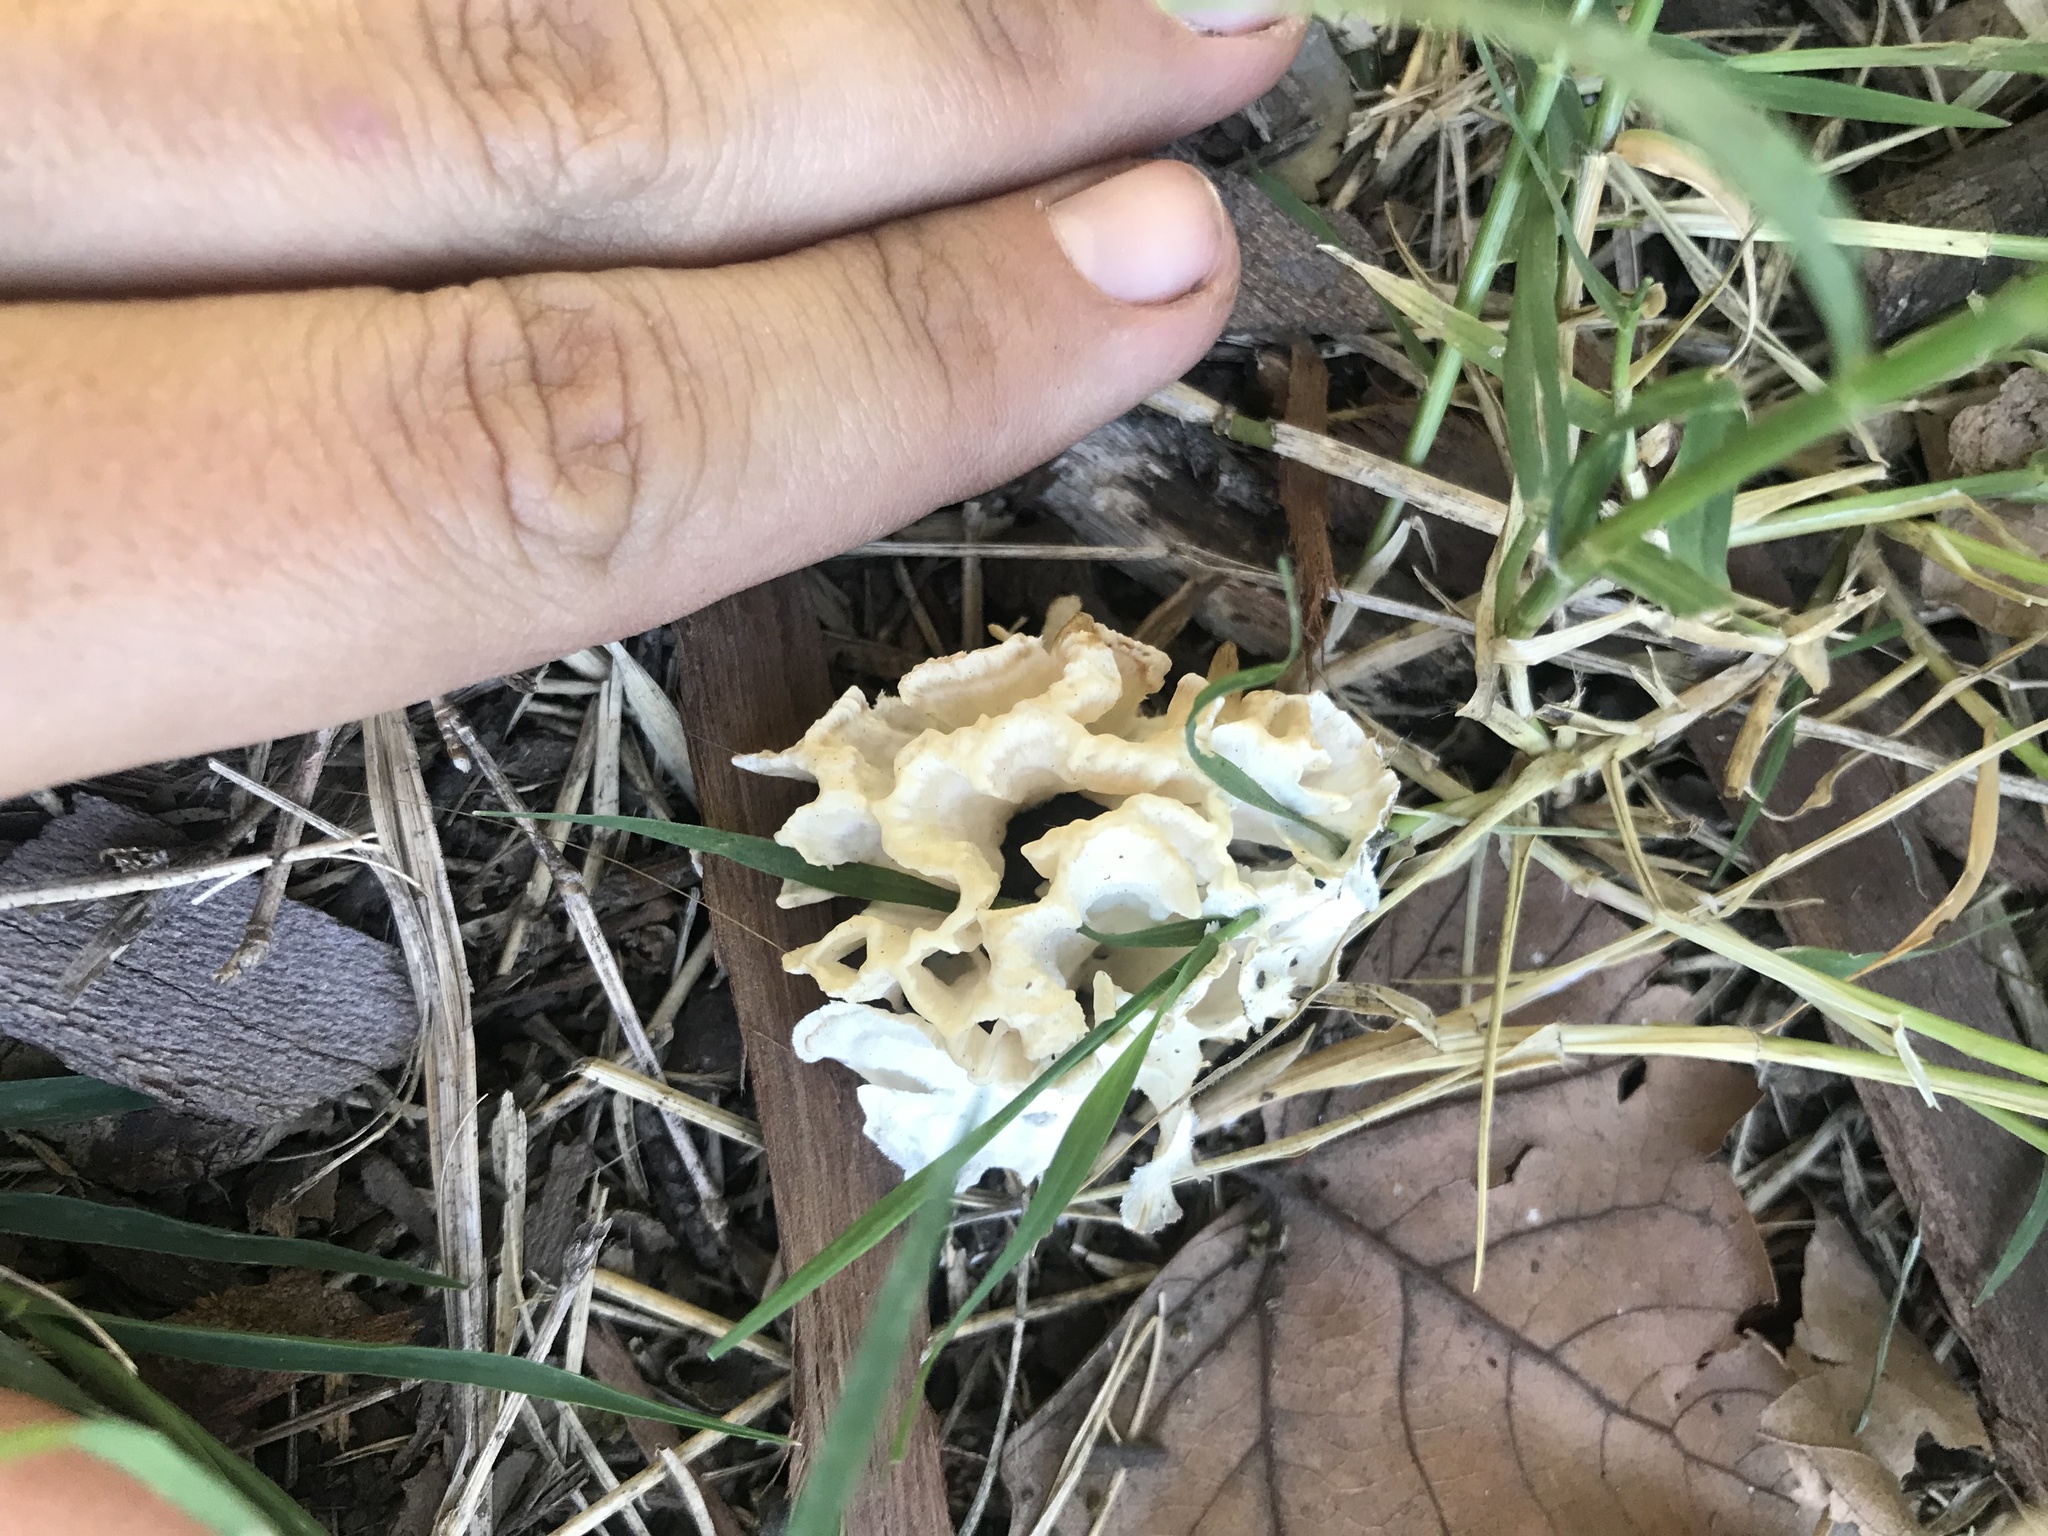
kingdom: Fungi
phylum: Basidiomycota
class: Agaricomycetes
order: Polyporales
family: Irpicaceae
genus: Irpex
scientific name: Irpex rosettiformis
